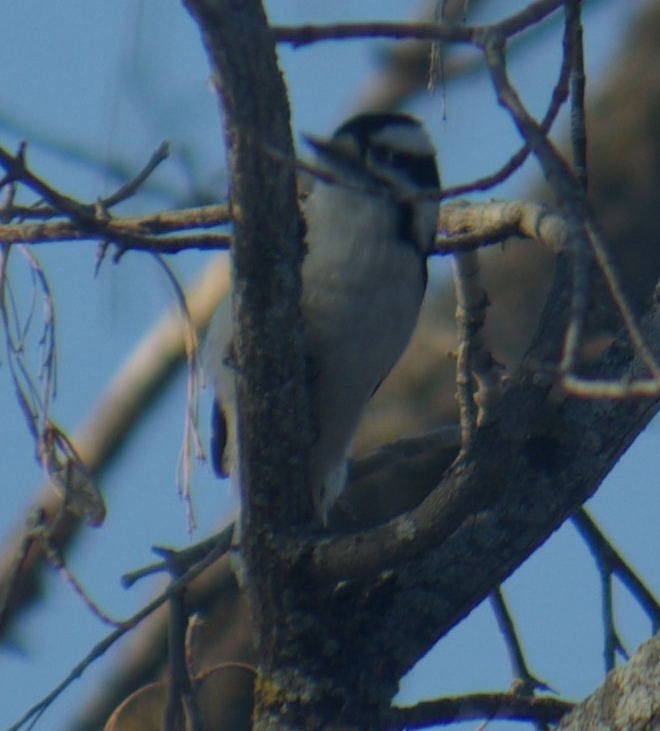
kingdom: Animalia
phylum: Chordata
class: Aves
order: Piciformes
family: Picidae
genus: Dryobates
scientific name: Dryobates pubescens
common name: Downy woodpecker
